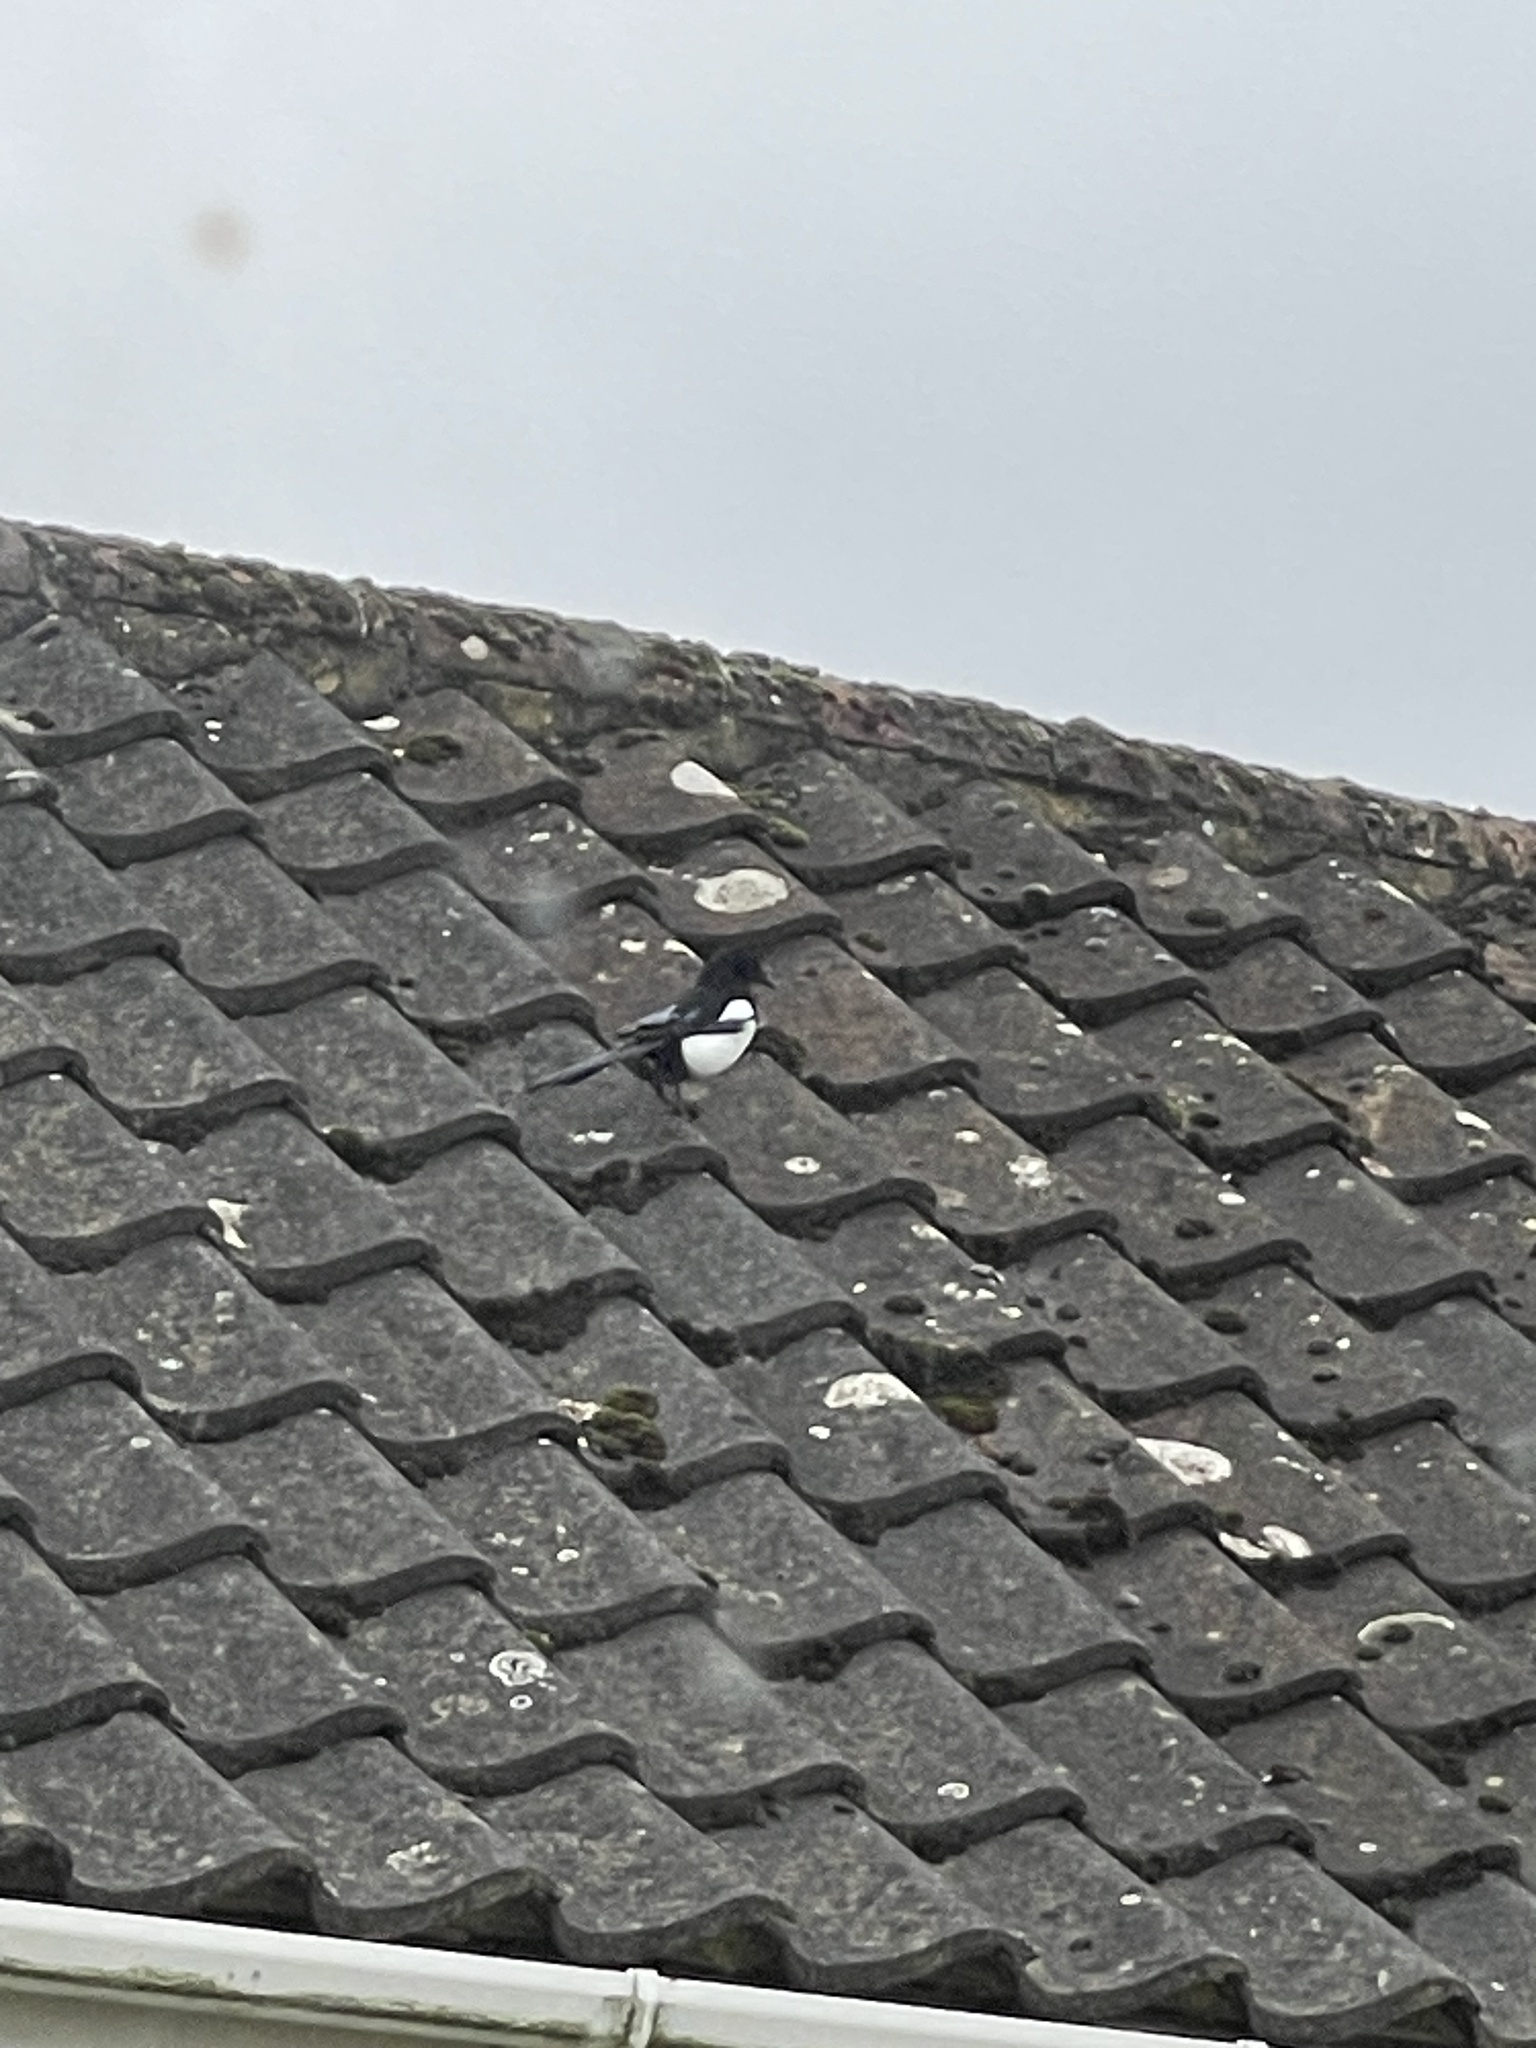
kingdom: Animalia
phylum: Chordata
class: Aves
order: Passeriformes
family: Corvidae
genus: Pica
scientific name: Pica pica
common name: Eurasian magpie
